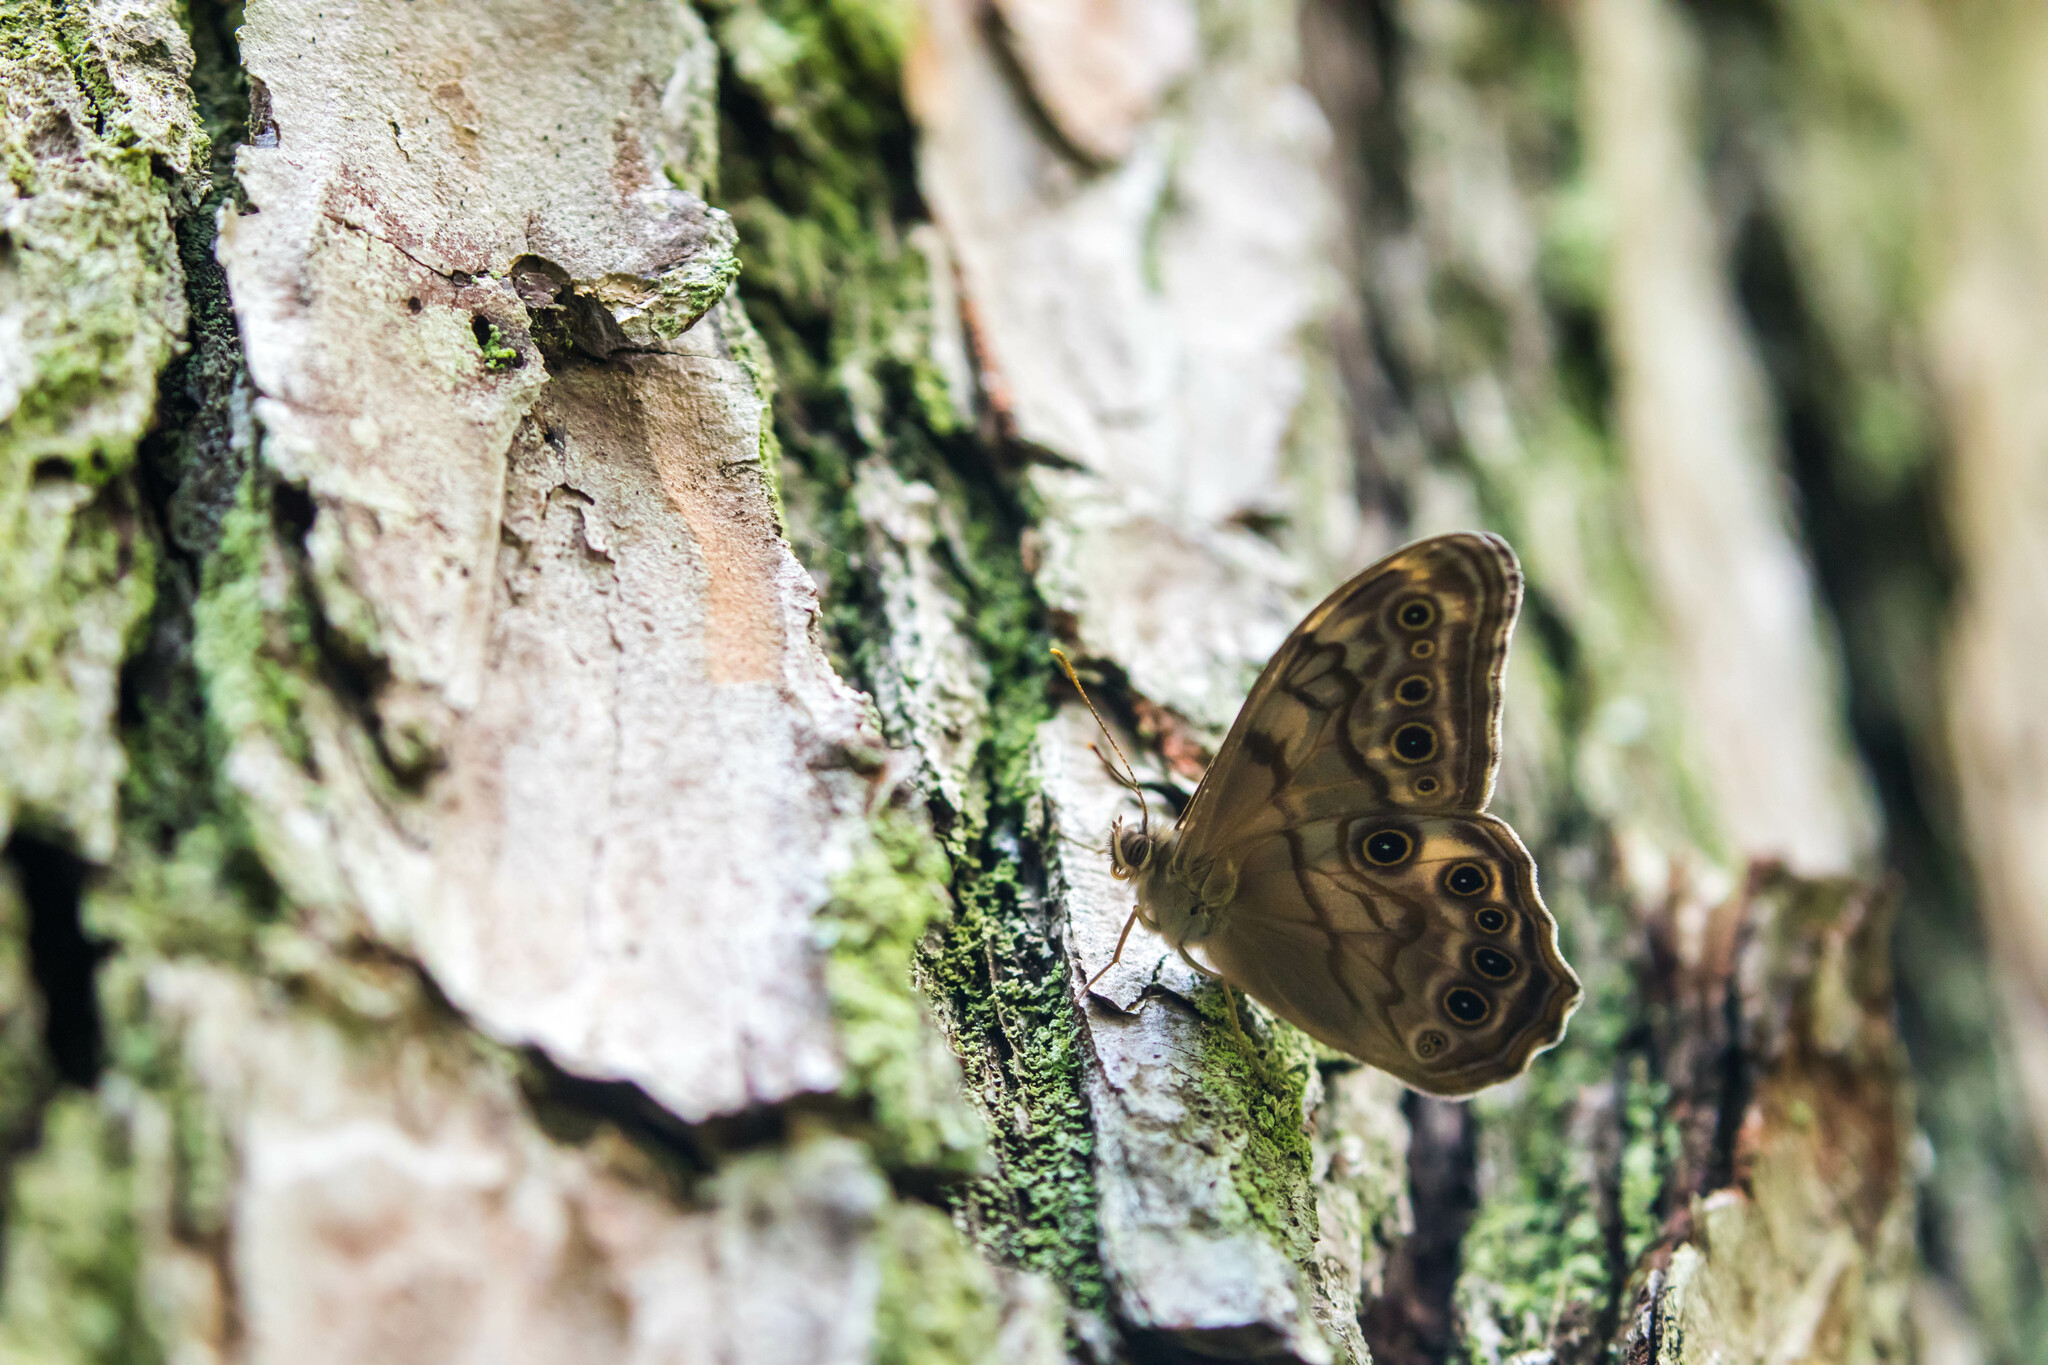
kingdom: Animalia
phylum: Arthropoda
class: Insecta
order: Lepidoptera
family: Nymphalidae
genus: Lethe
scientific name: Lethe creola
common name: Creole pearly-eye
